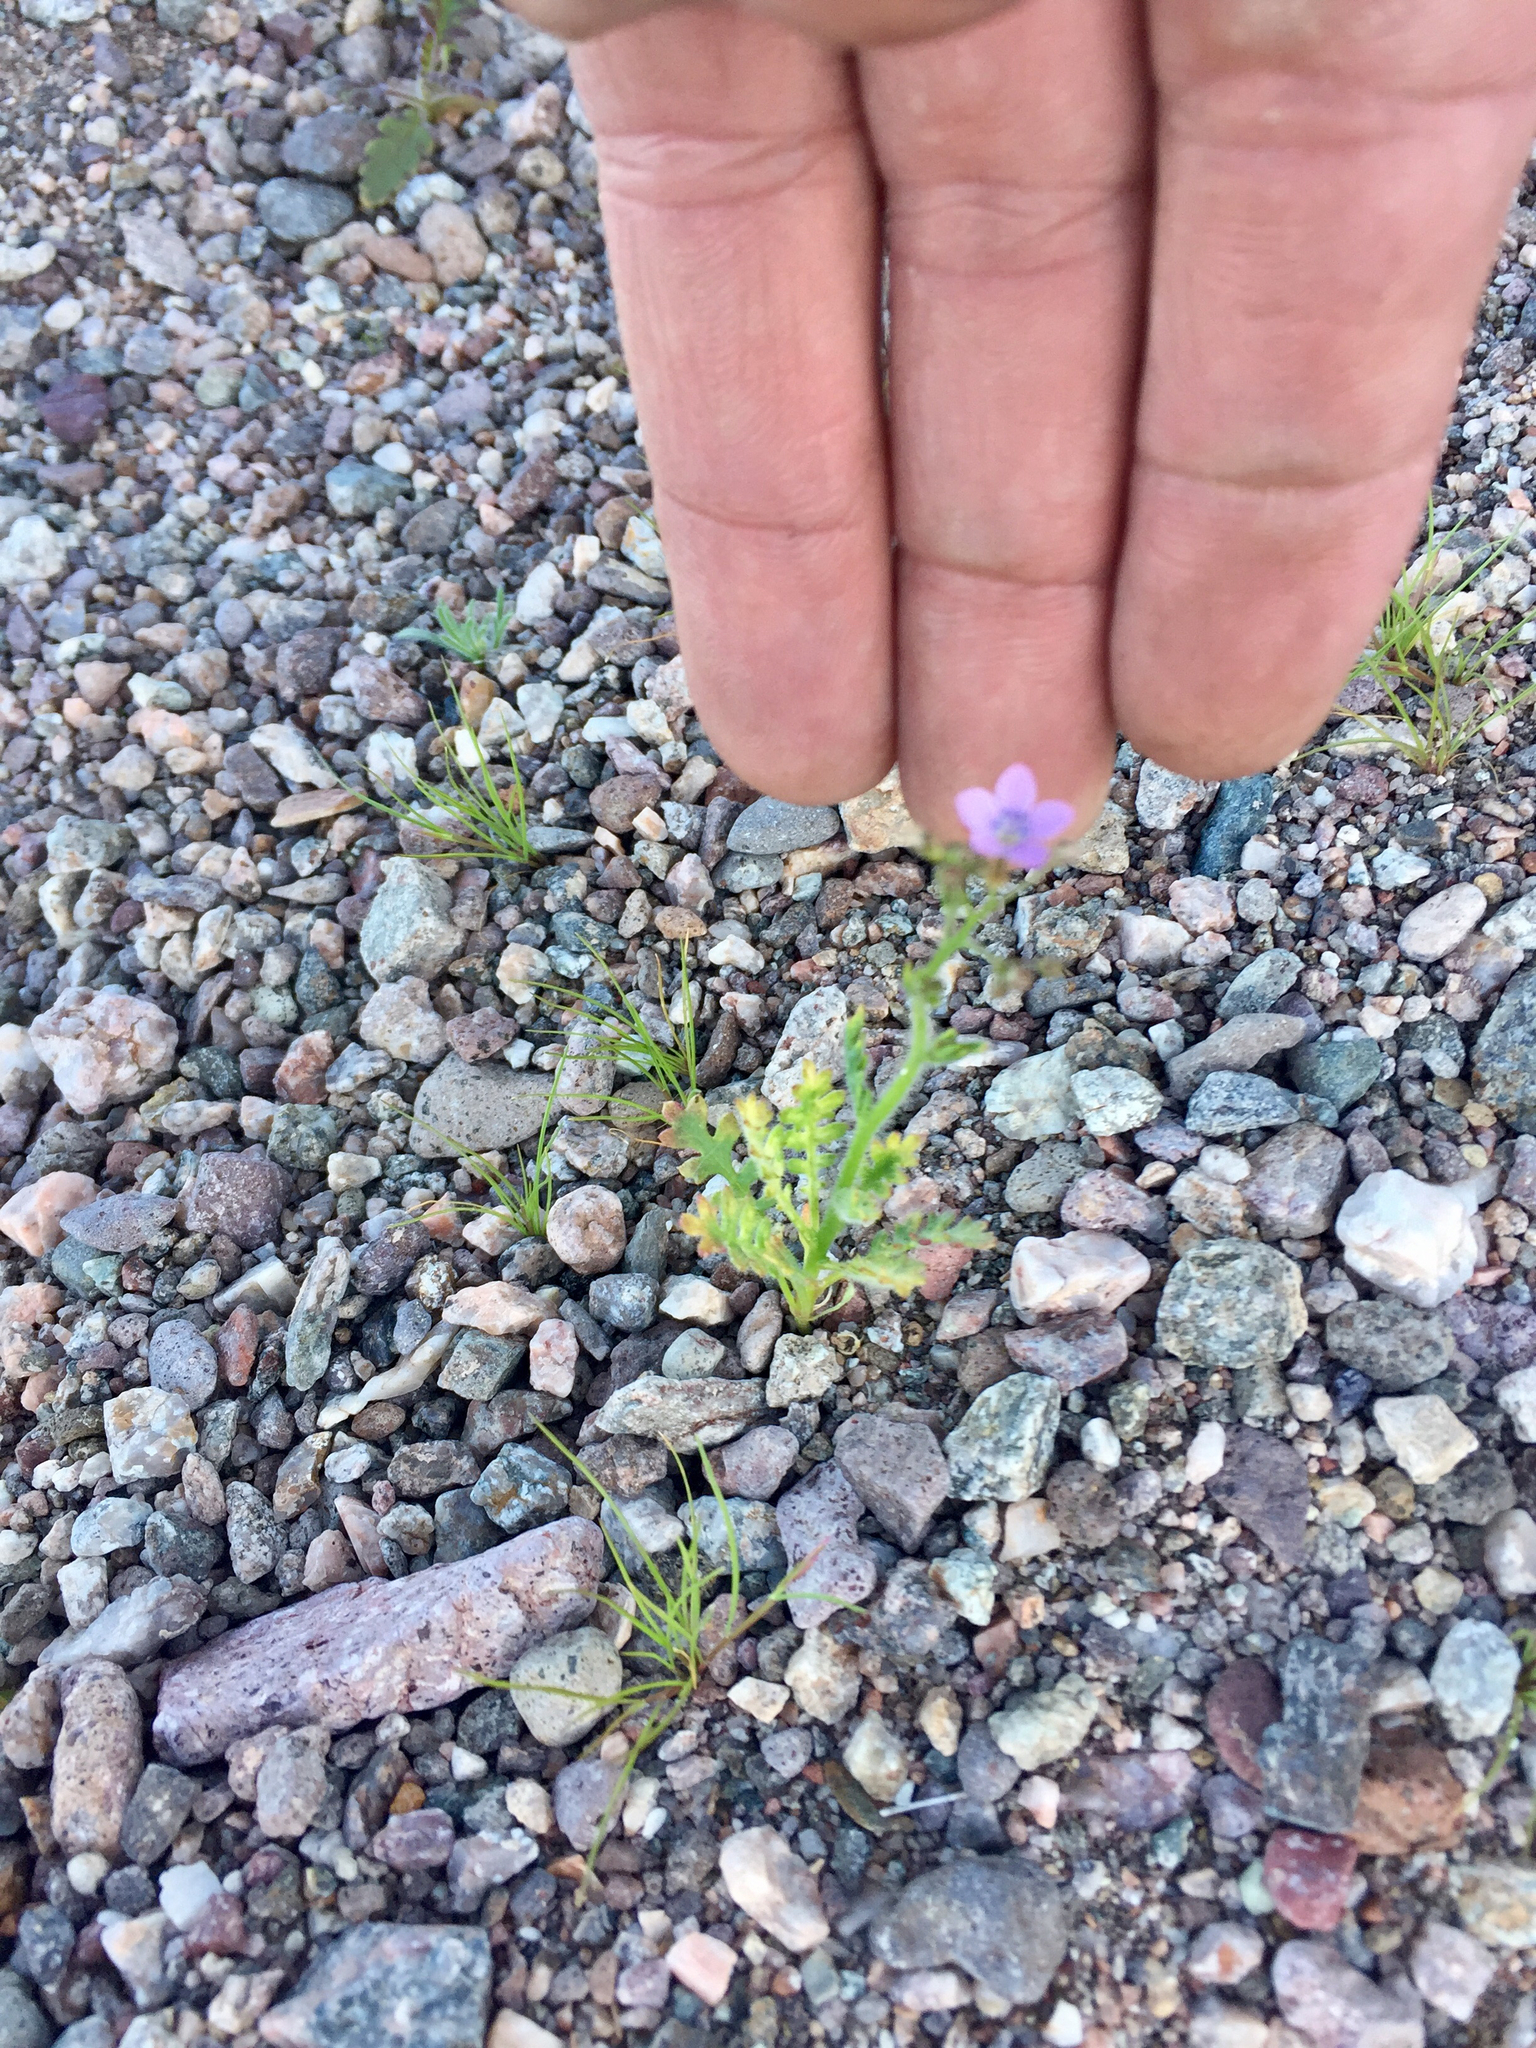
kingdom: Plantae
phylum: Tracheophyta
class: Magnoliopsida
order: Ericales
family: Polemoniaceae
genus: Gilia
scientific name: Gilia minor
